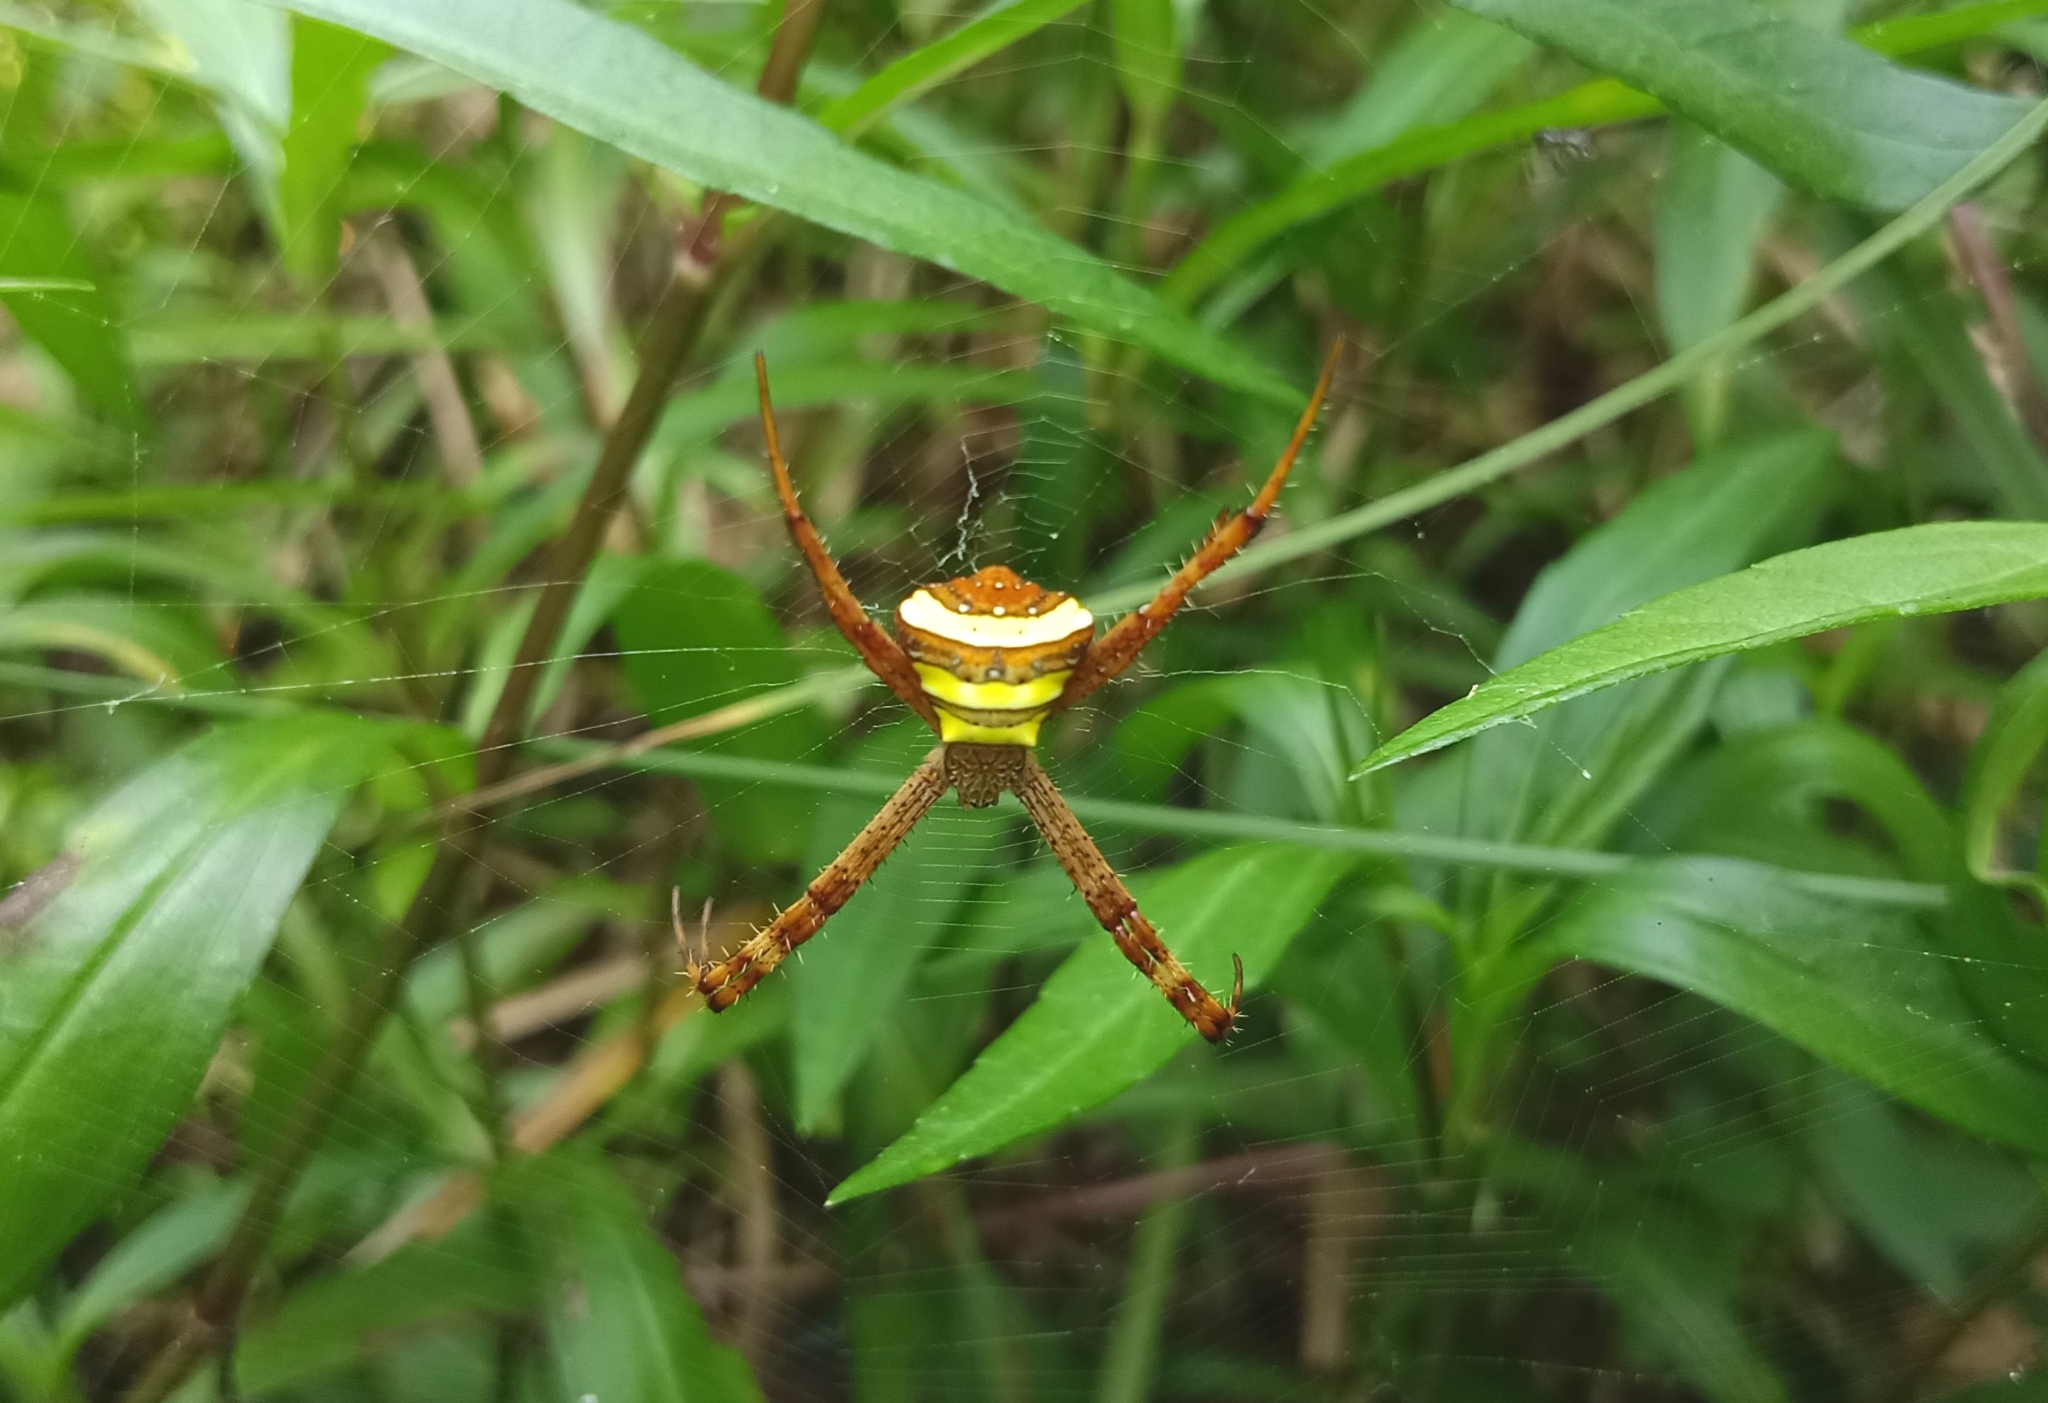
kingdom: Animalia
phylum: Arthropoda
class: Arachnida
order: Araneae
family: Araneidae
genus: Argiope
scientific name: Argiope pulchella
